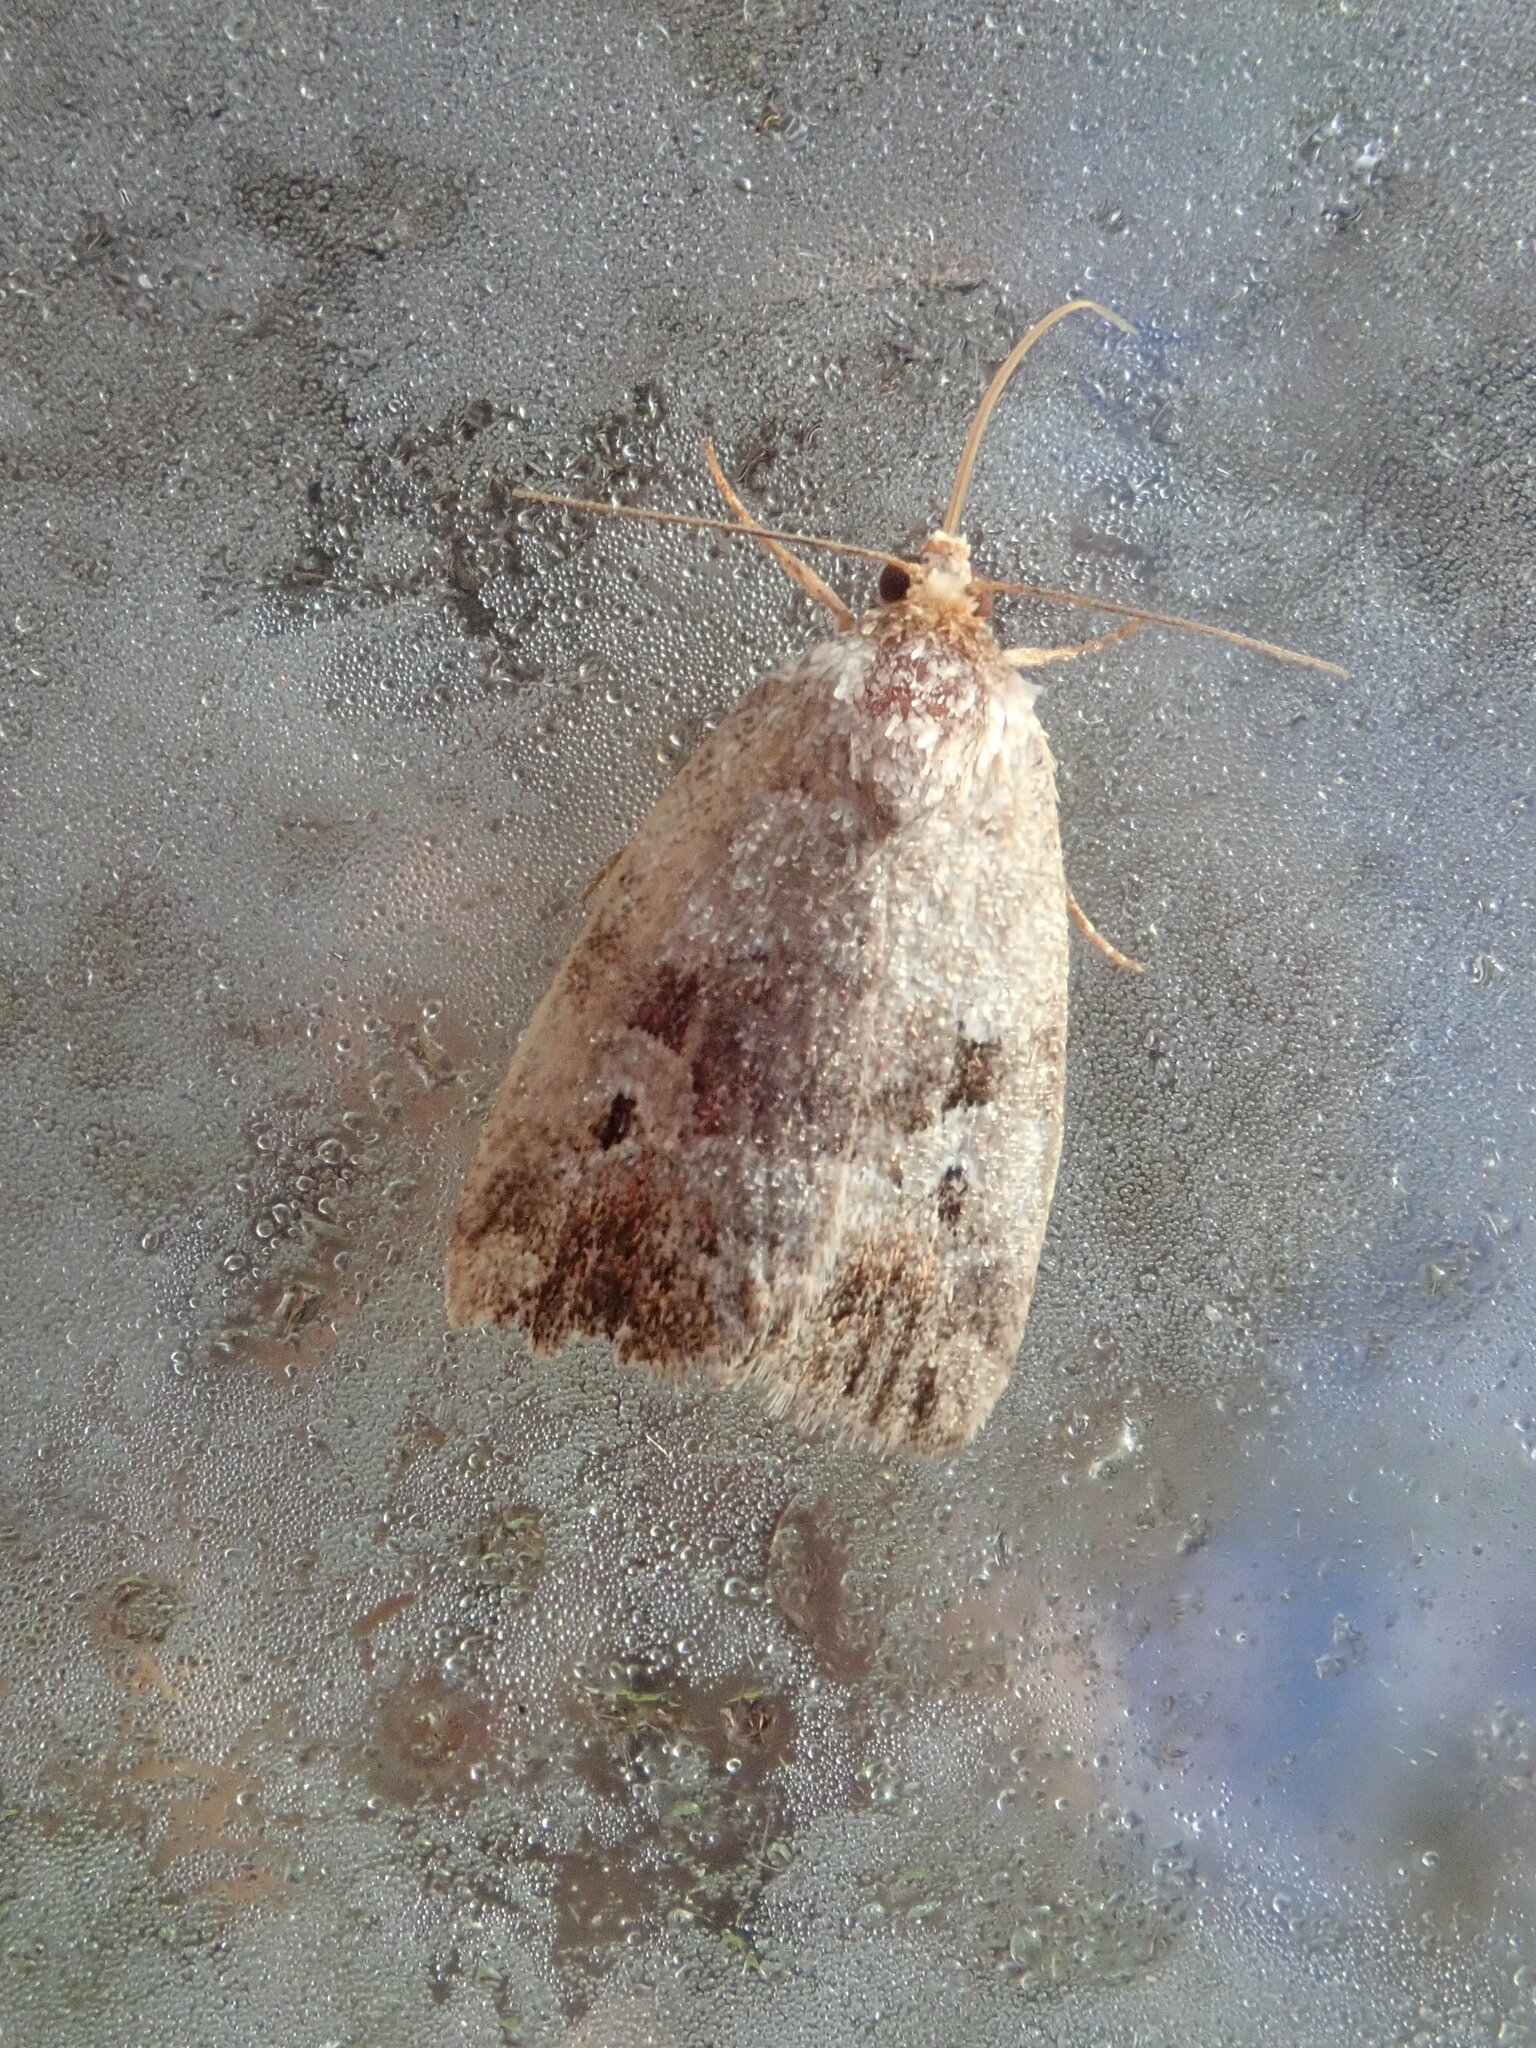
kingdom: Animalia
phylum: Arthropoda
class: Insecta
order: Lepidoptera
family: Noctuidae
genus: Elaphria
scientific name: Elaphria alapallida
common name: Pale-winged midget
